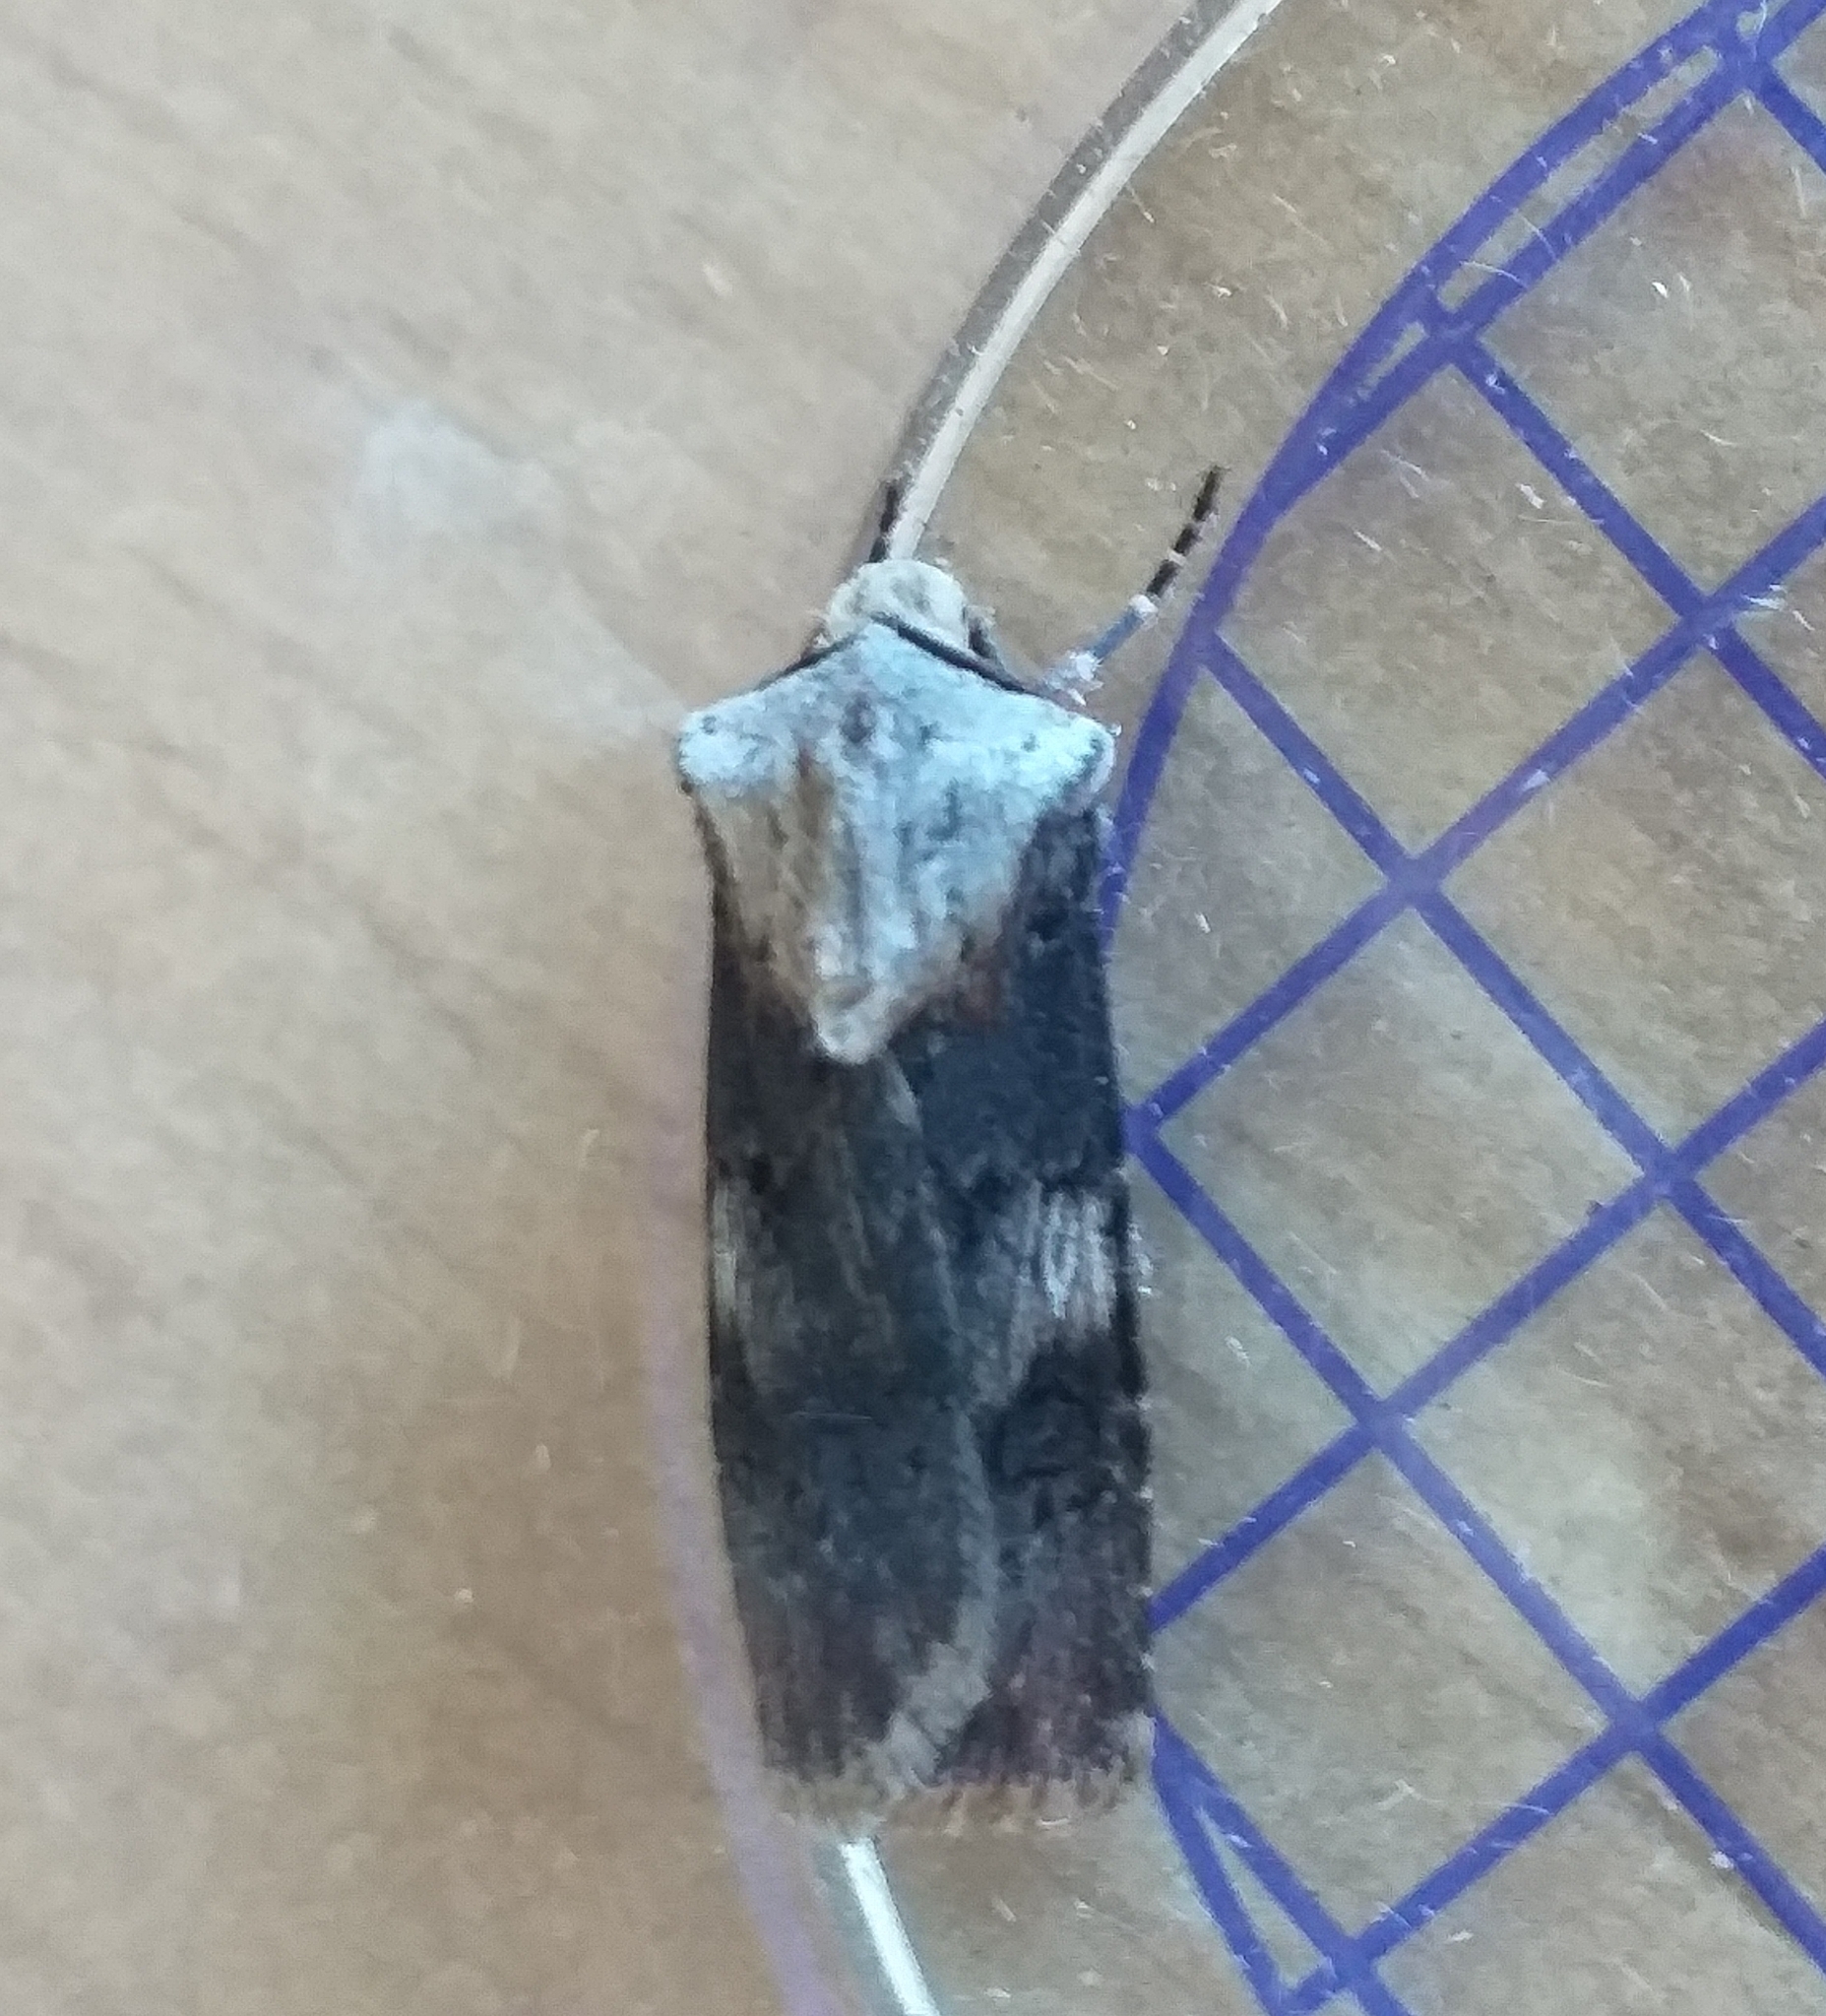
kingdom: Animalia
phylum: Arthropoda
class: Insecta
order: Lepidoptera
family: Noctuidae
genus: Agrotis
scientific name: Agrotis puta
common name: Shuttle-shaped dart
